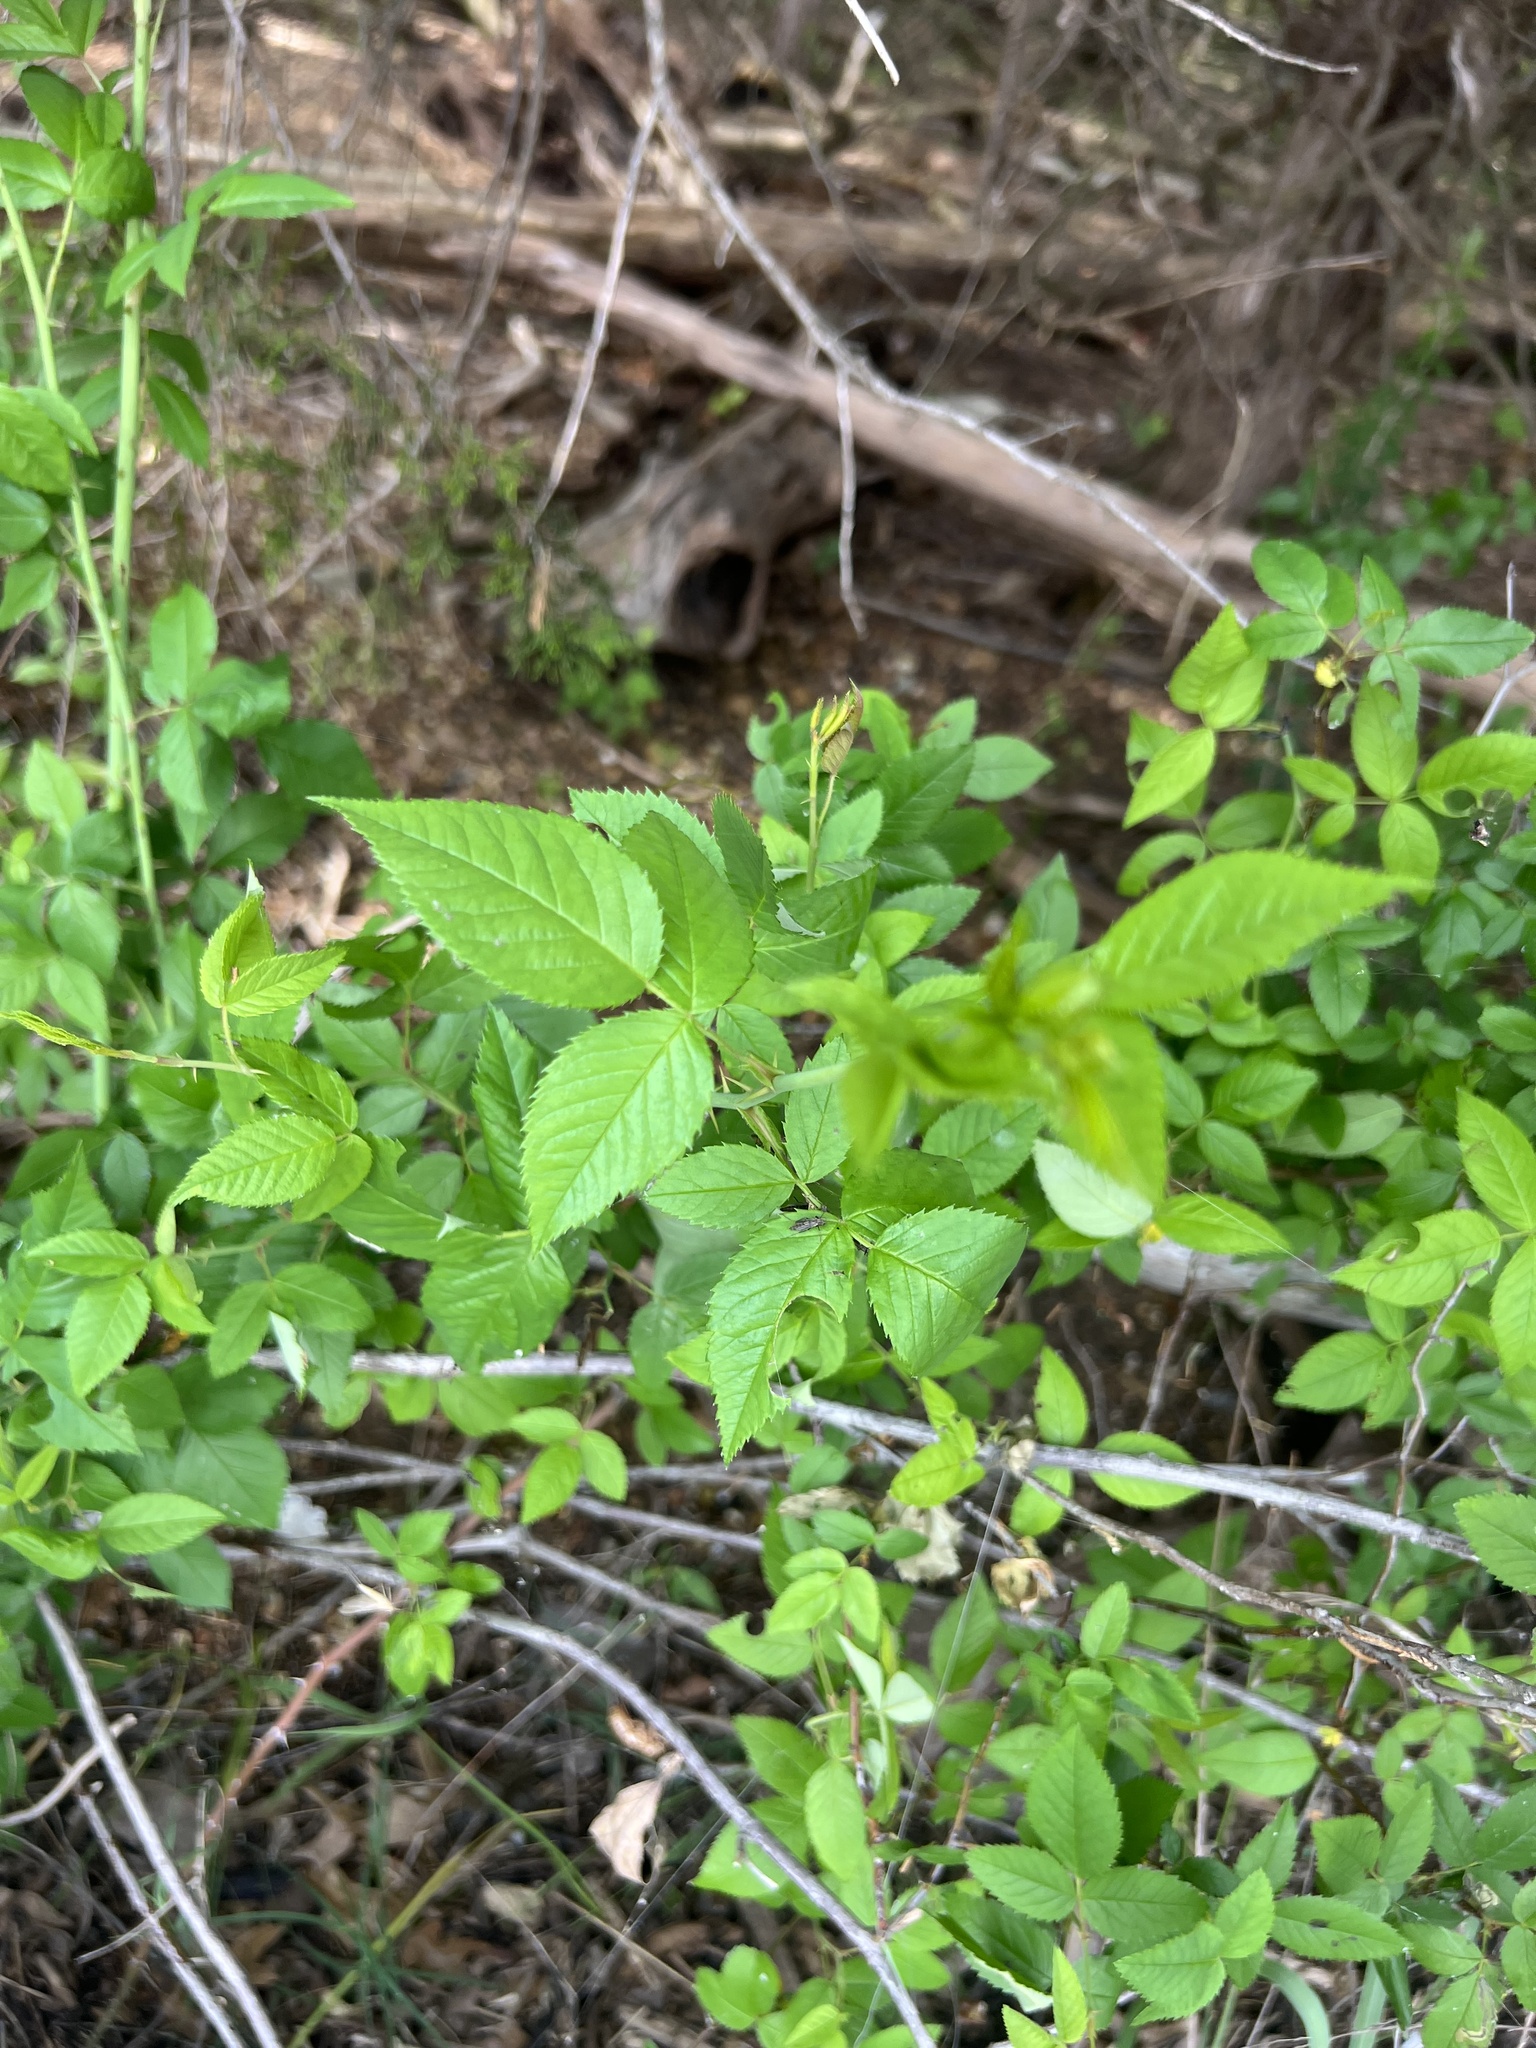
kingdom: Plantae
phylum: Tracheophyta
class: Magnoliopsida
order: Rosales
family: Rosaceae
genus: Rosa
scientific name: Rosa setigera
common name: Prairie rose
